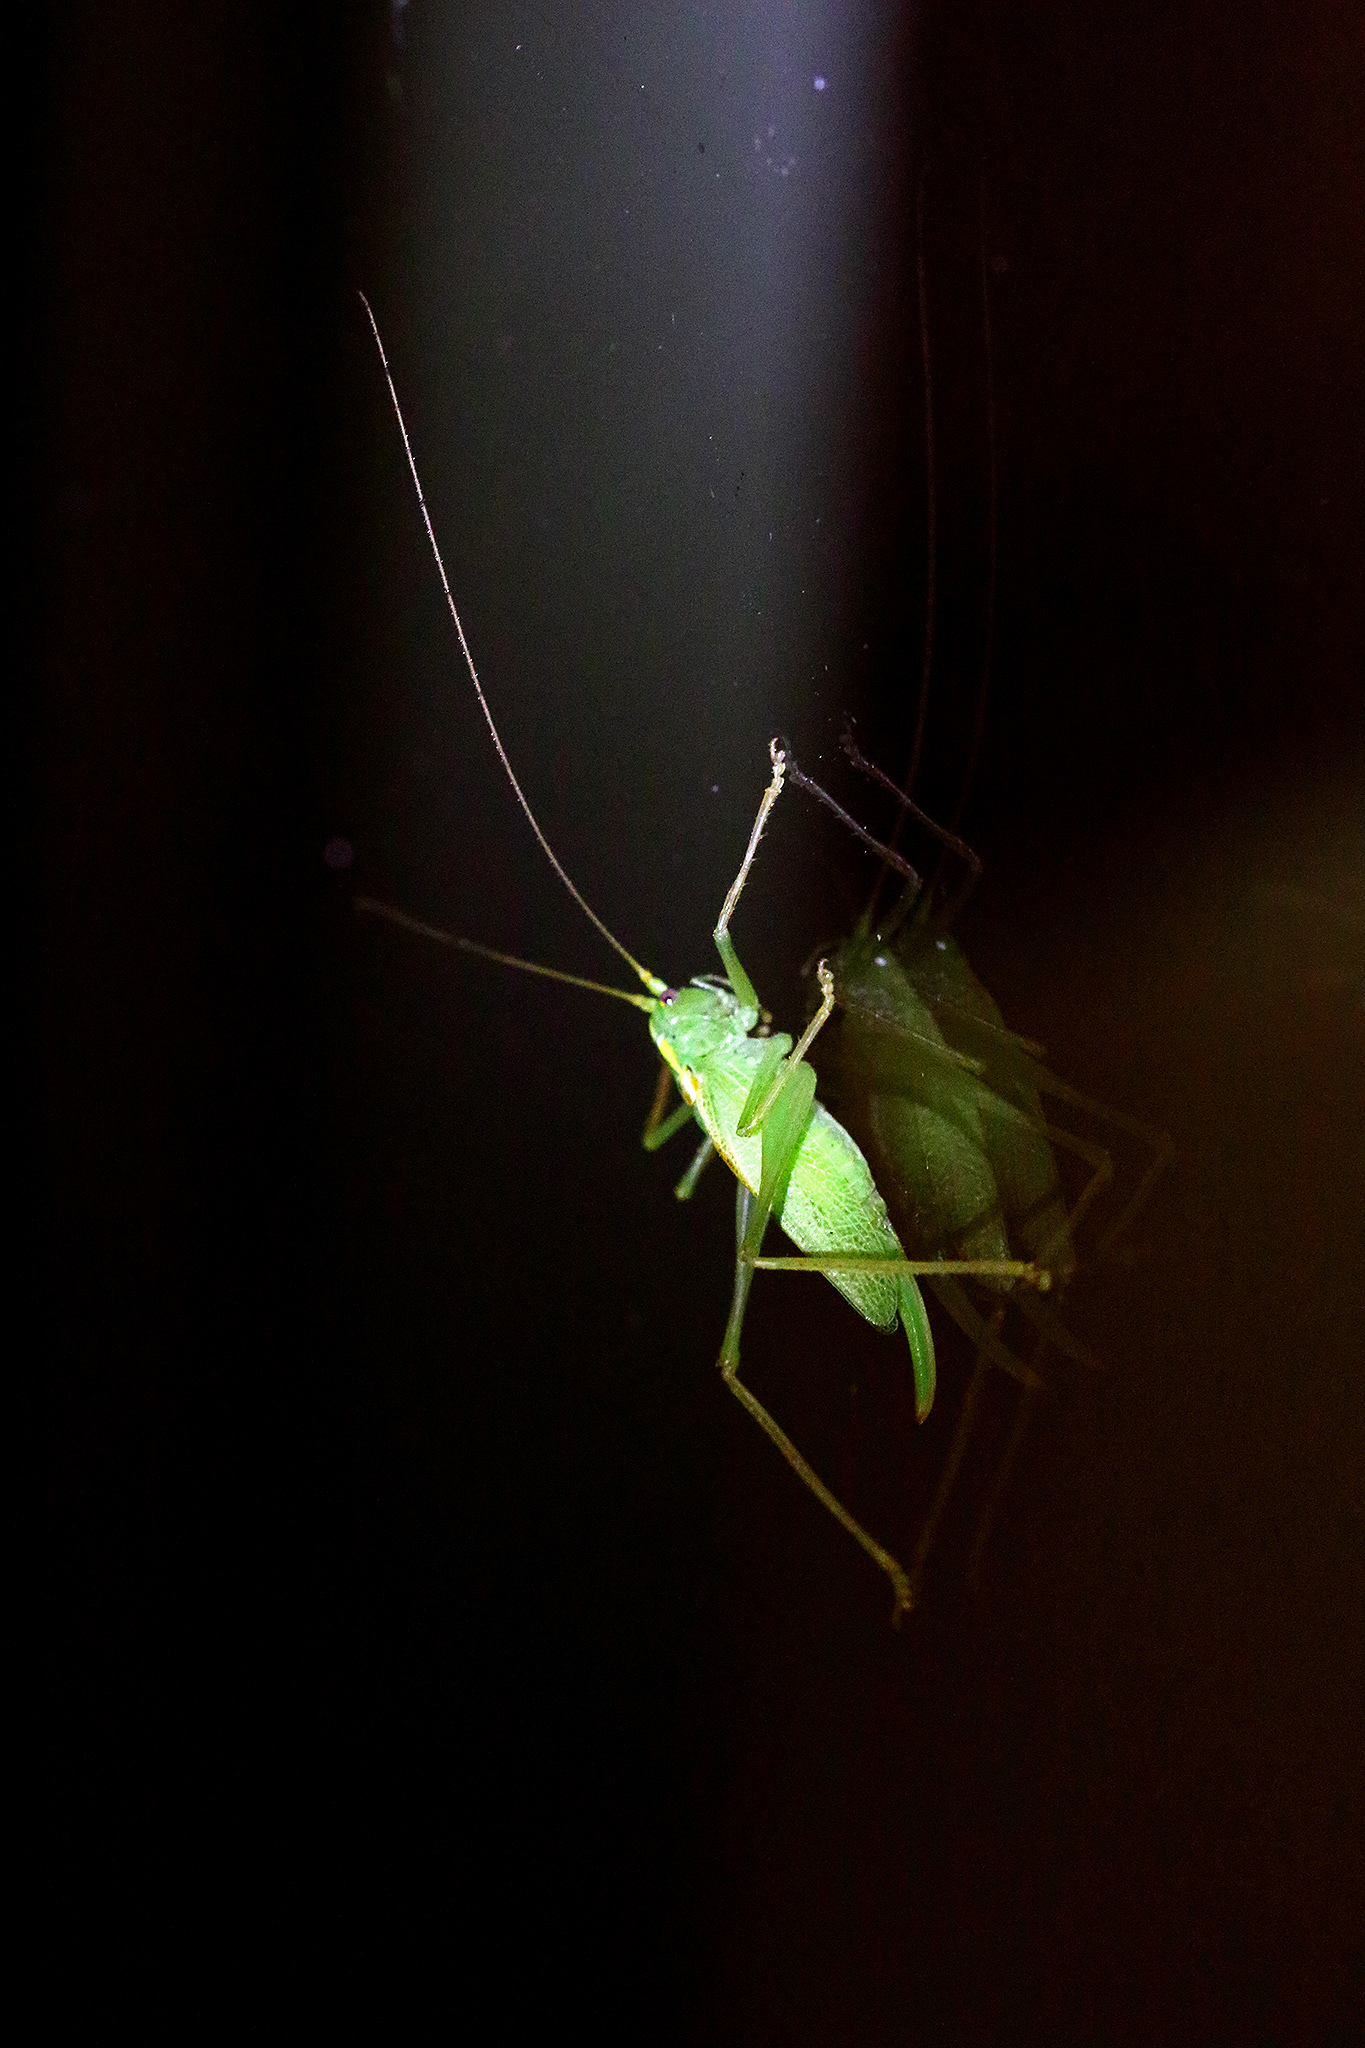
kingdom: Animalia
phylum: Arthropoda
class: Insecta
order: Orthoptera
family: Tettigoniidae
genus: Meconema
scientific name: Meconema thalassinum
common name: Oak bush-cricket
